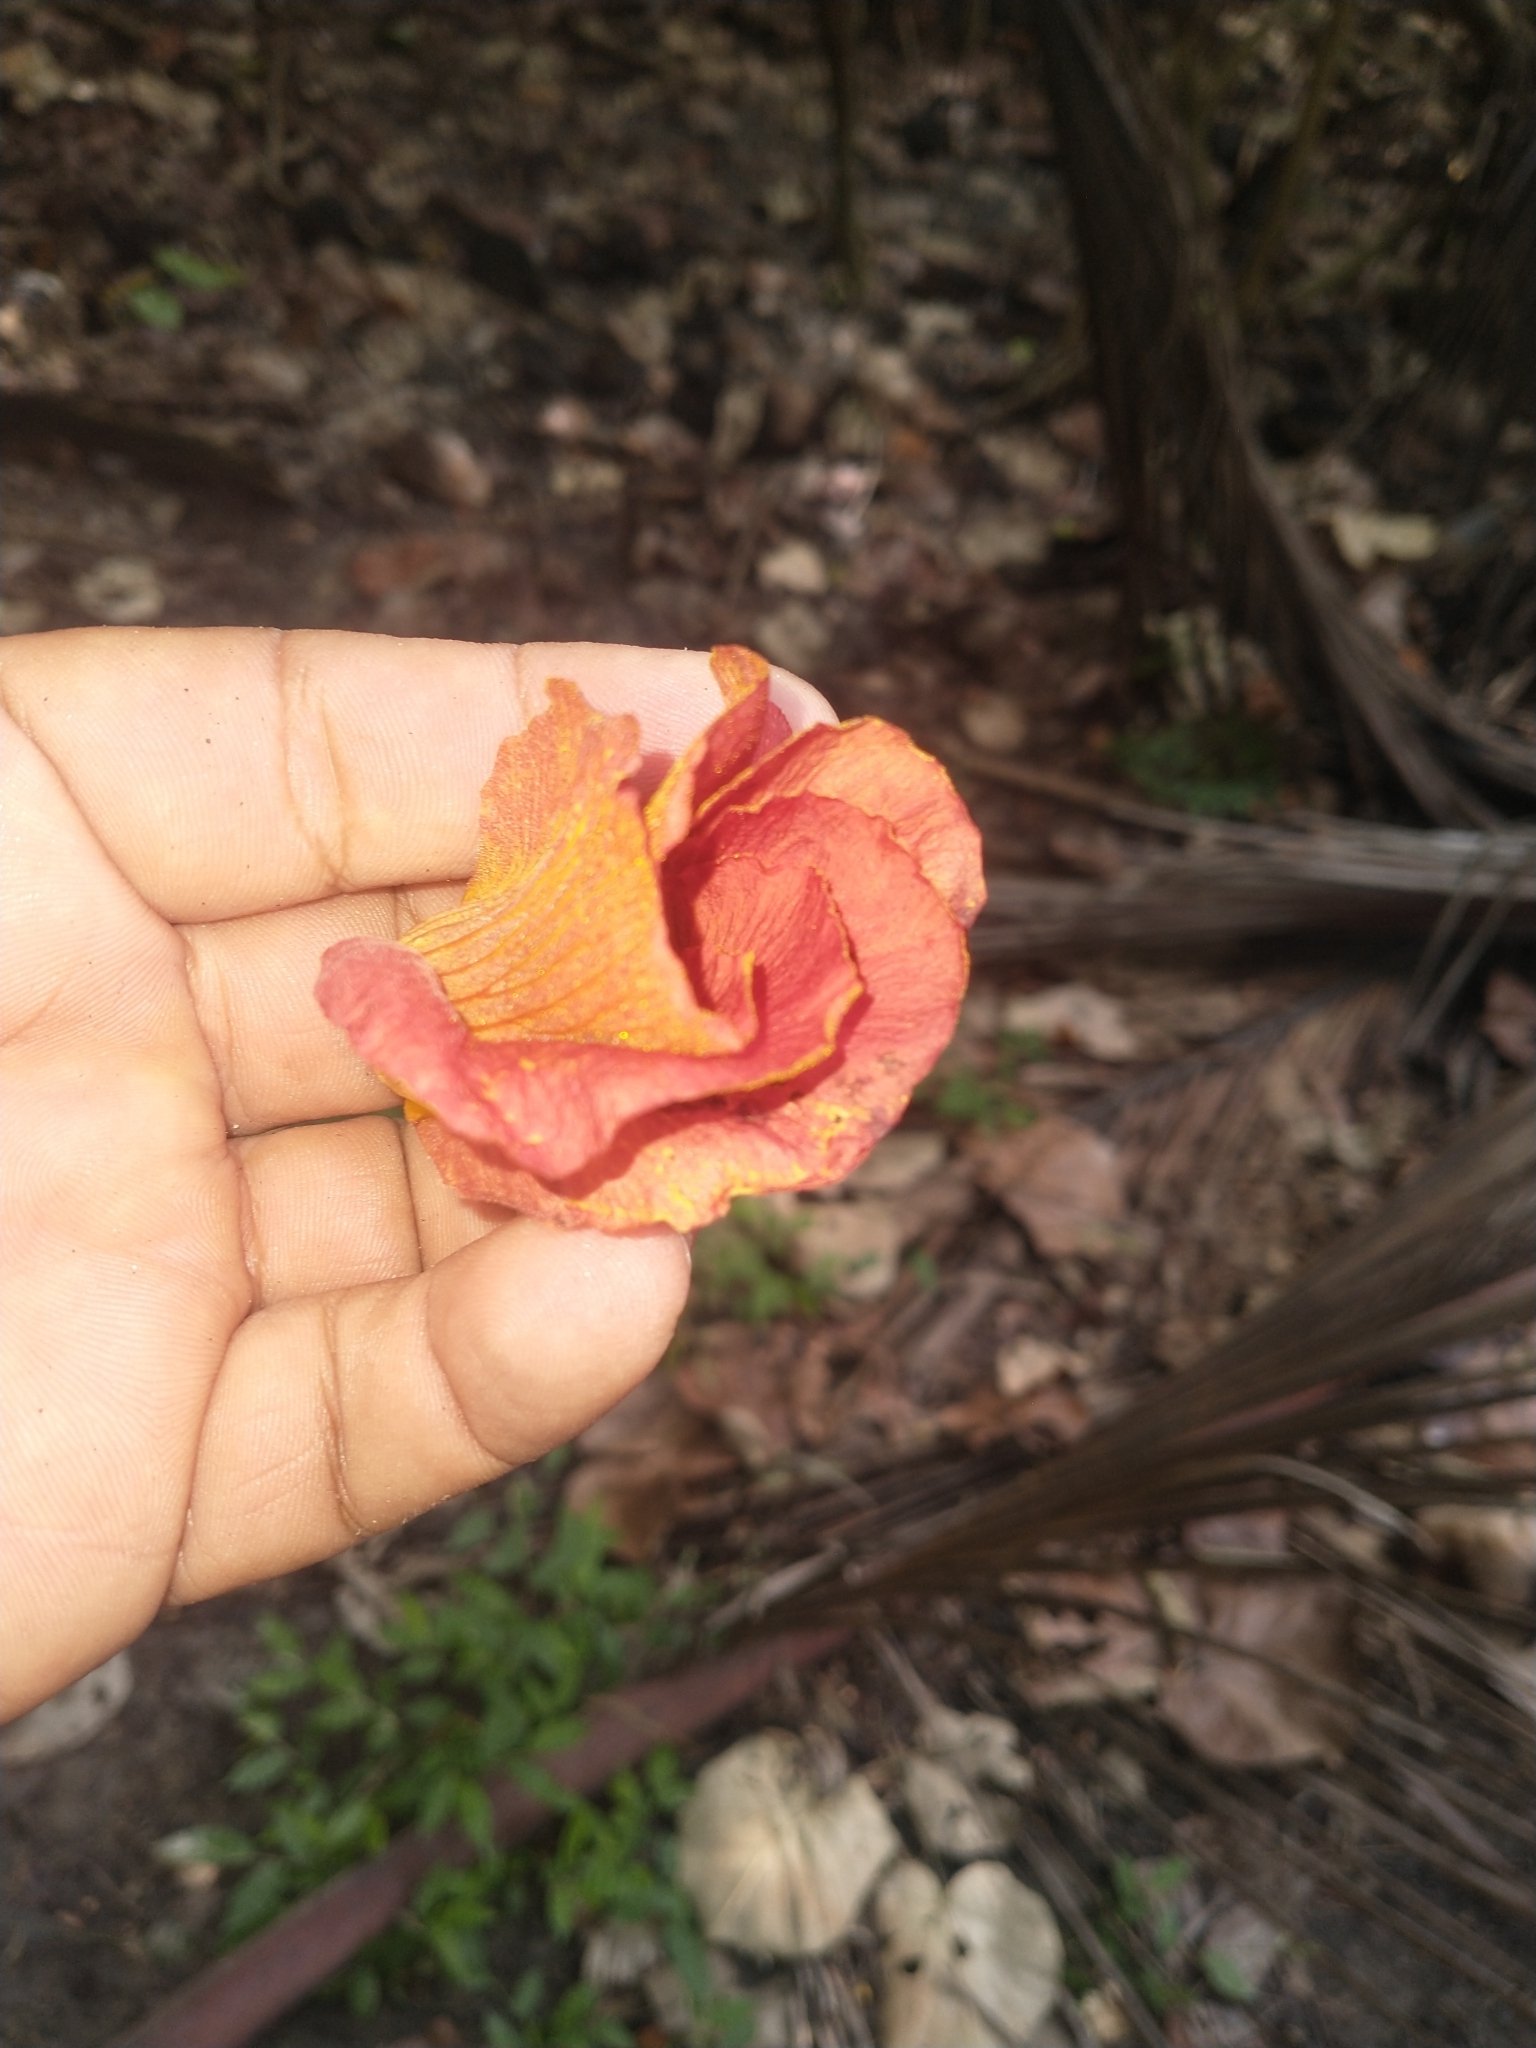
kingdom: Plantae
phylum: Tracheophyta
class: Magnoliopsida
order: Malvales
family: Malvaceae
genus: Talipariti
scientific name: Talipariti tiliaceum
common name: Sea hibiscus
